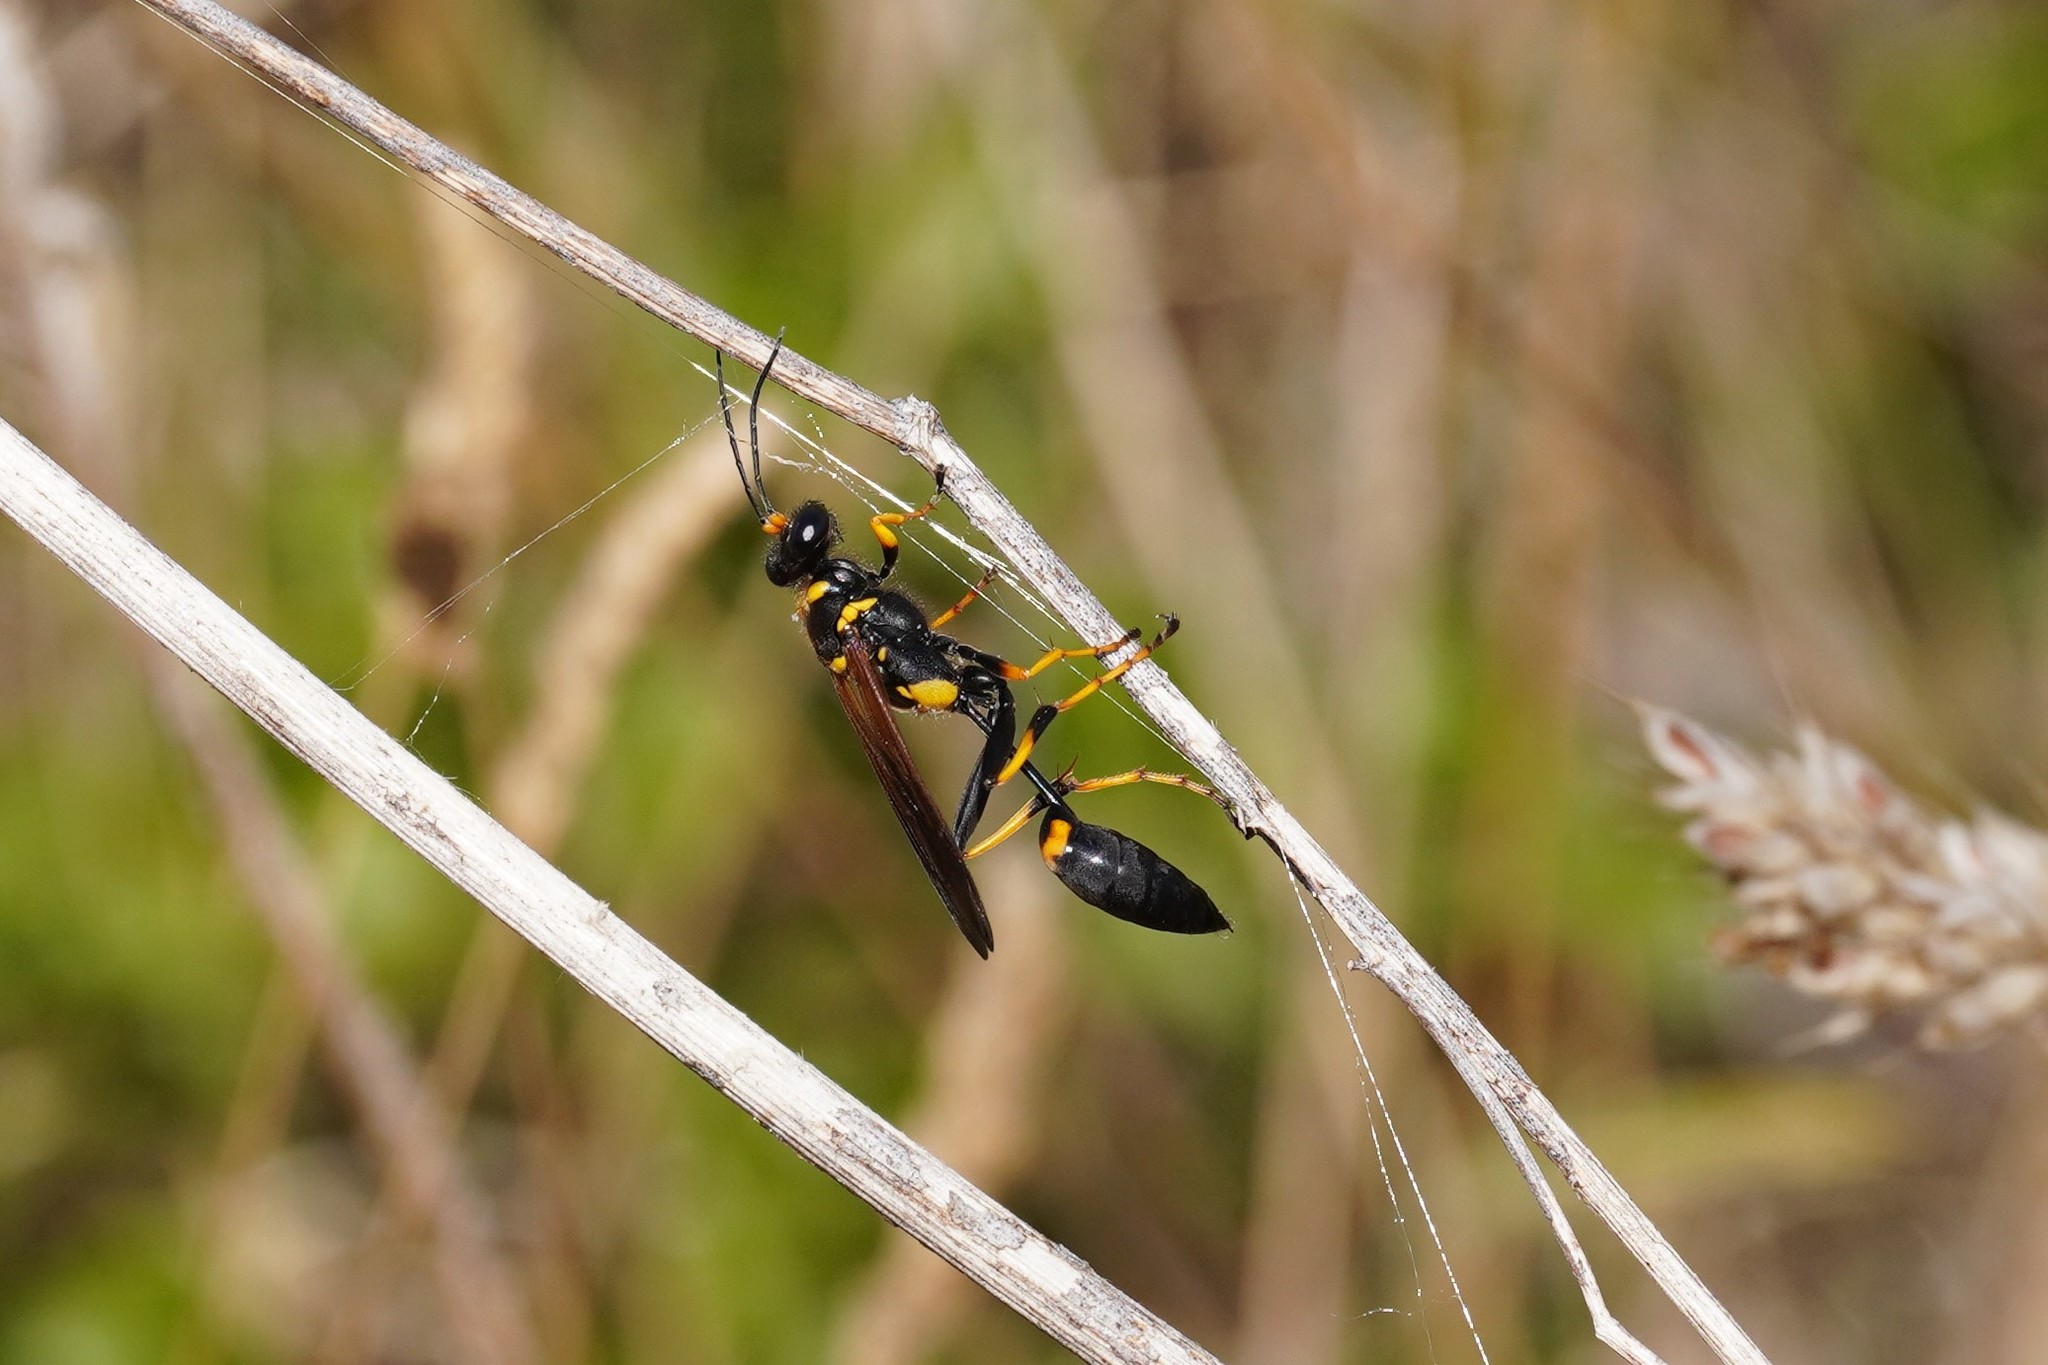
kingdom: Animalia
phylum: Arthropoda
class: Insecta
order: Hymenoptera
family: Sphecidae
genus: Sceliphron
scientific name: Sceliphron caementarium
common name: Mud dauber
